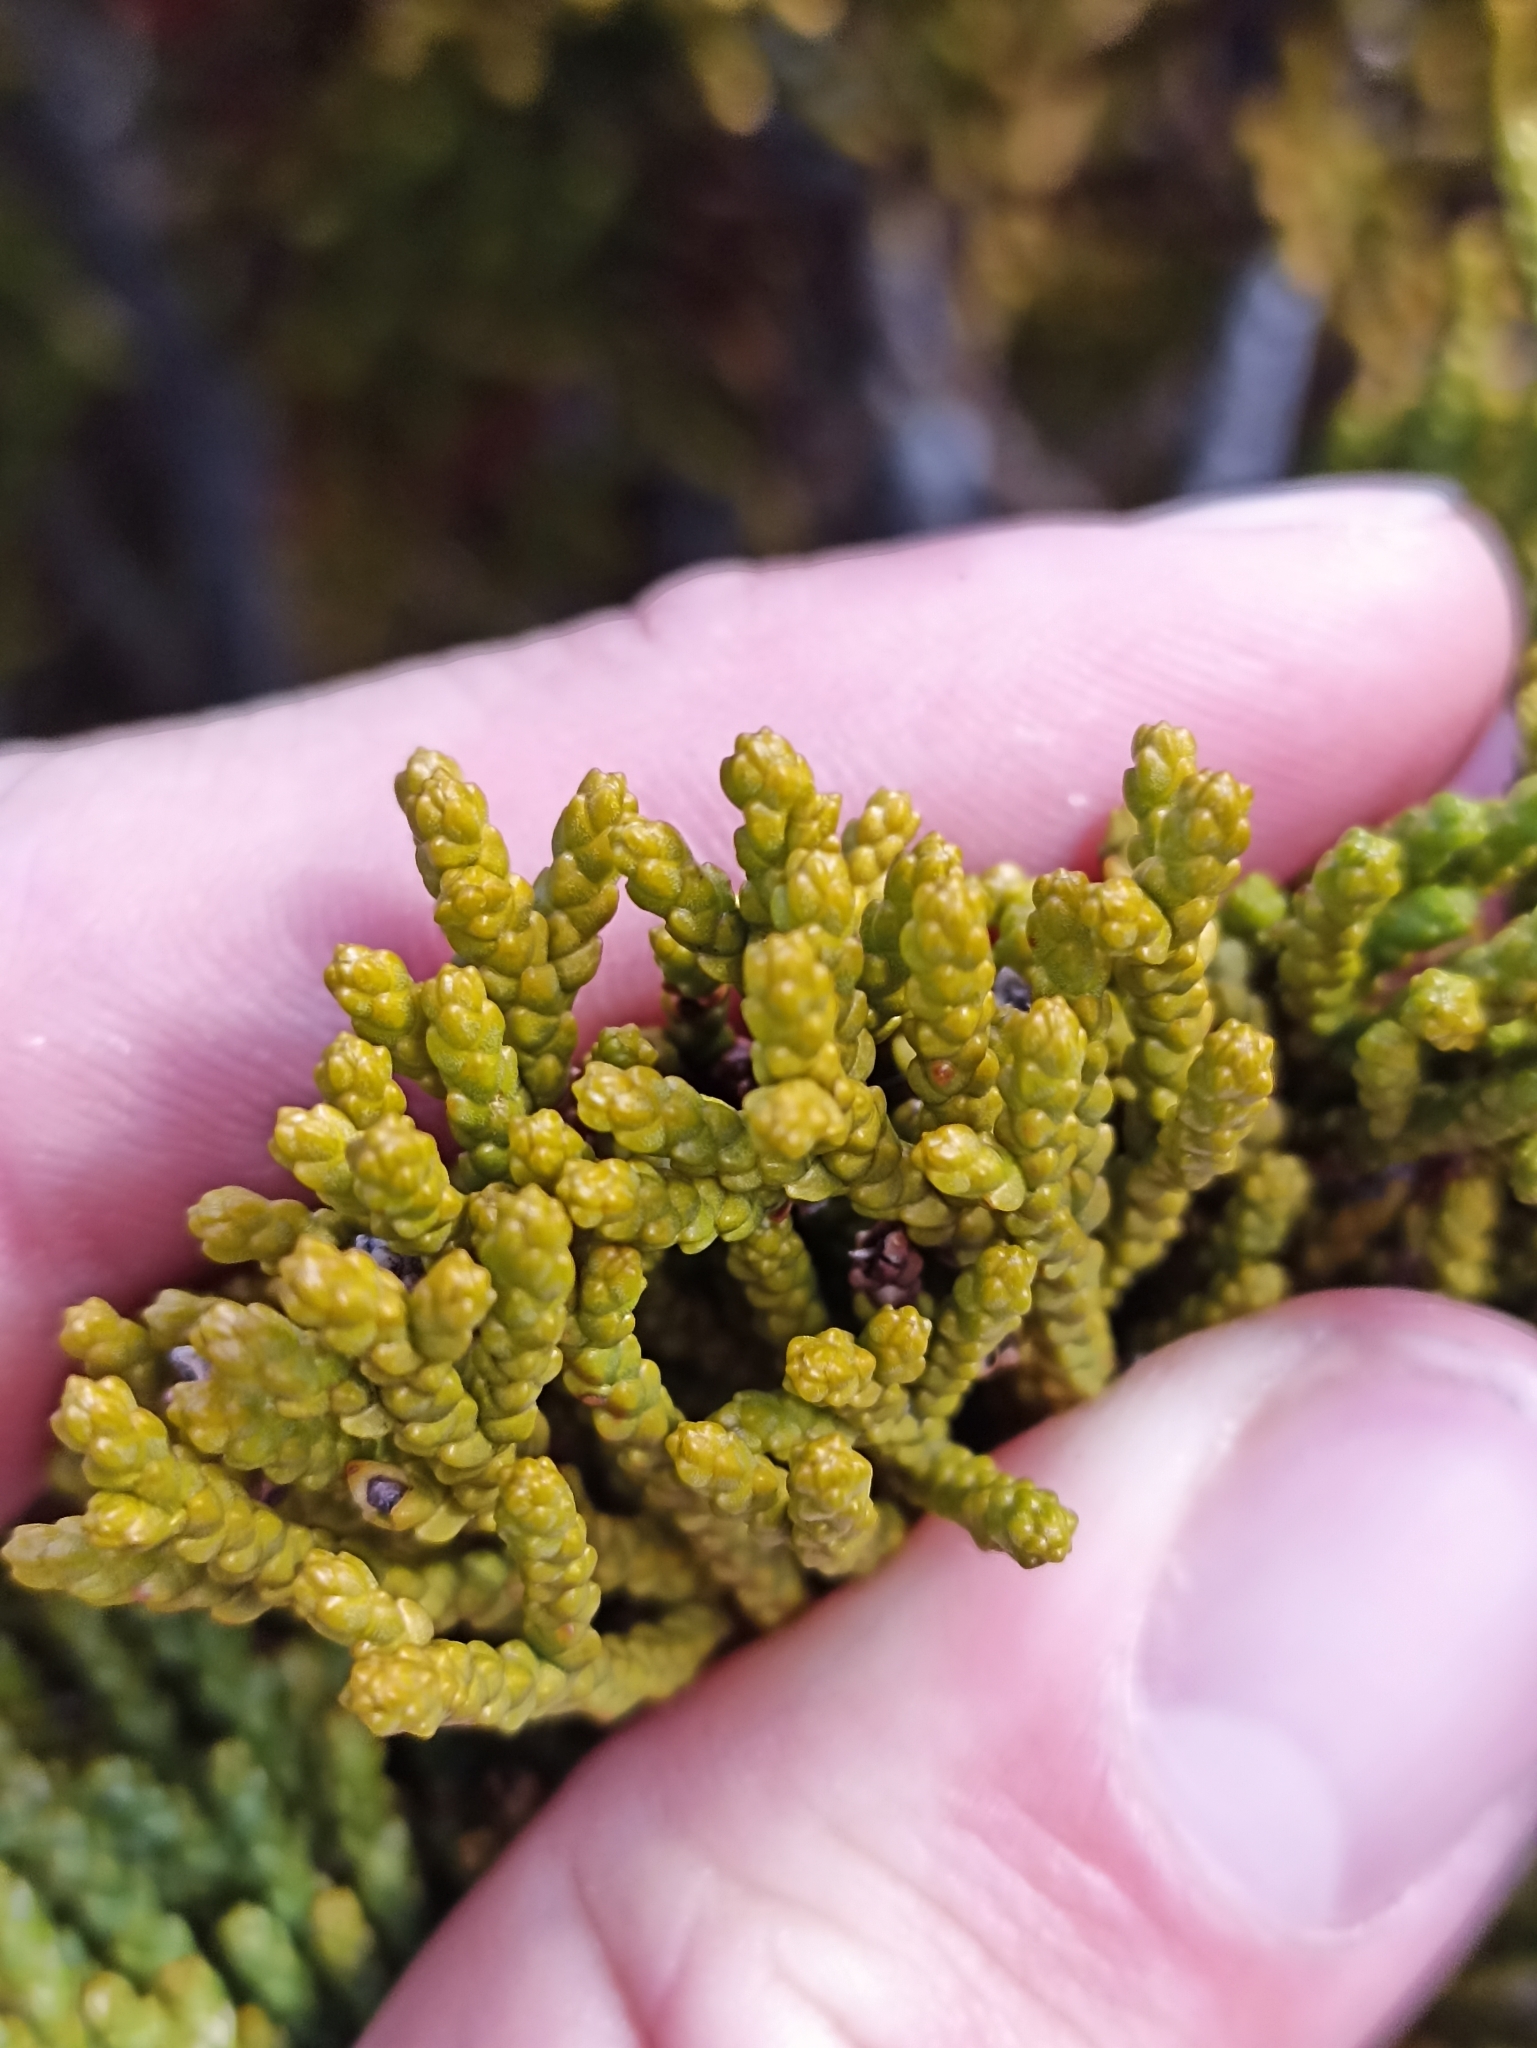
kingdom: Plantae
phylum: Tracheophyta
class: Pinopsida
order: Pinales
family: Podocarpaceae
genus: Halocarpus
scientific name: Halocarpus bidwillii
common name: Bog pine
